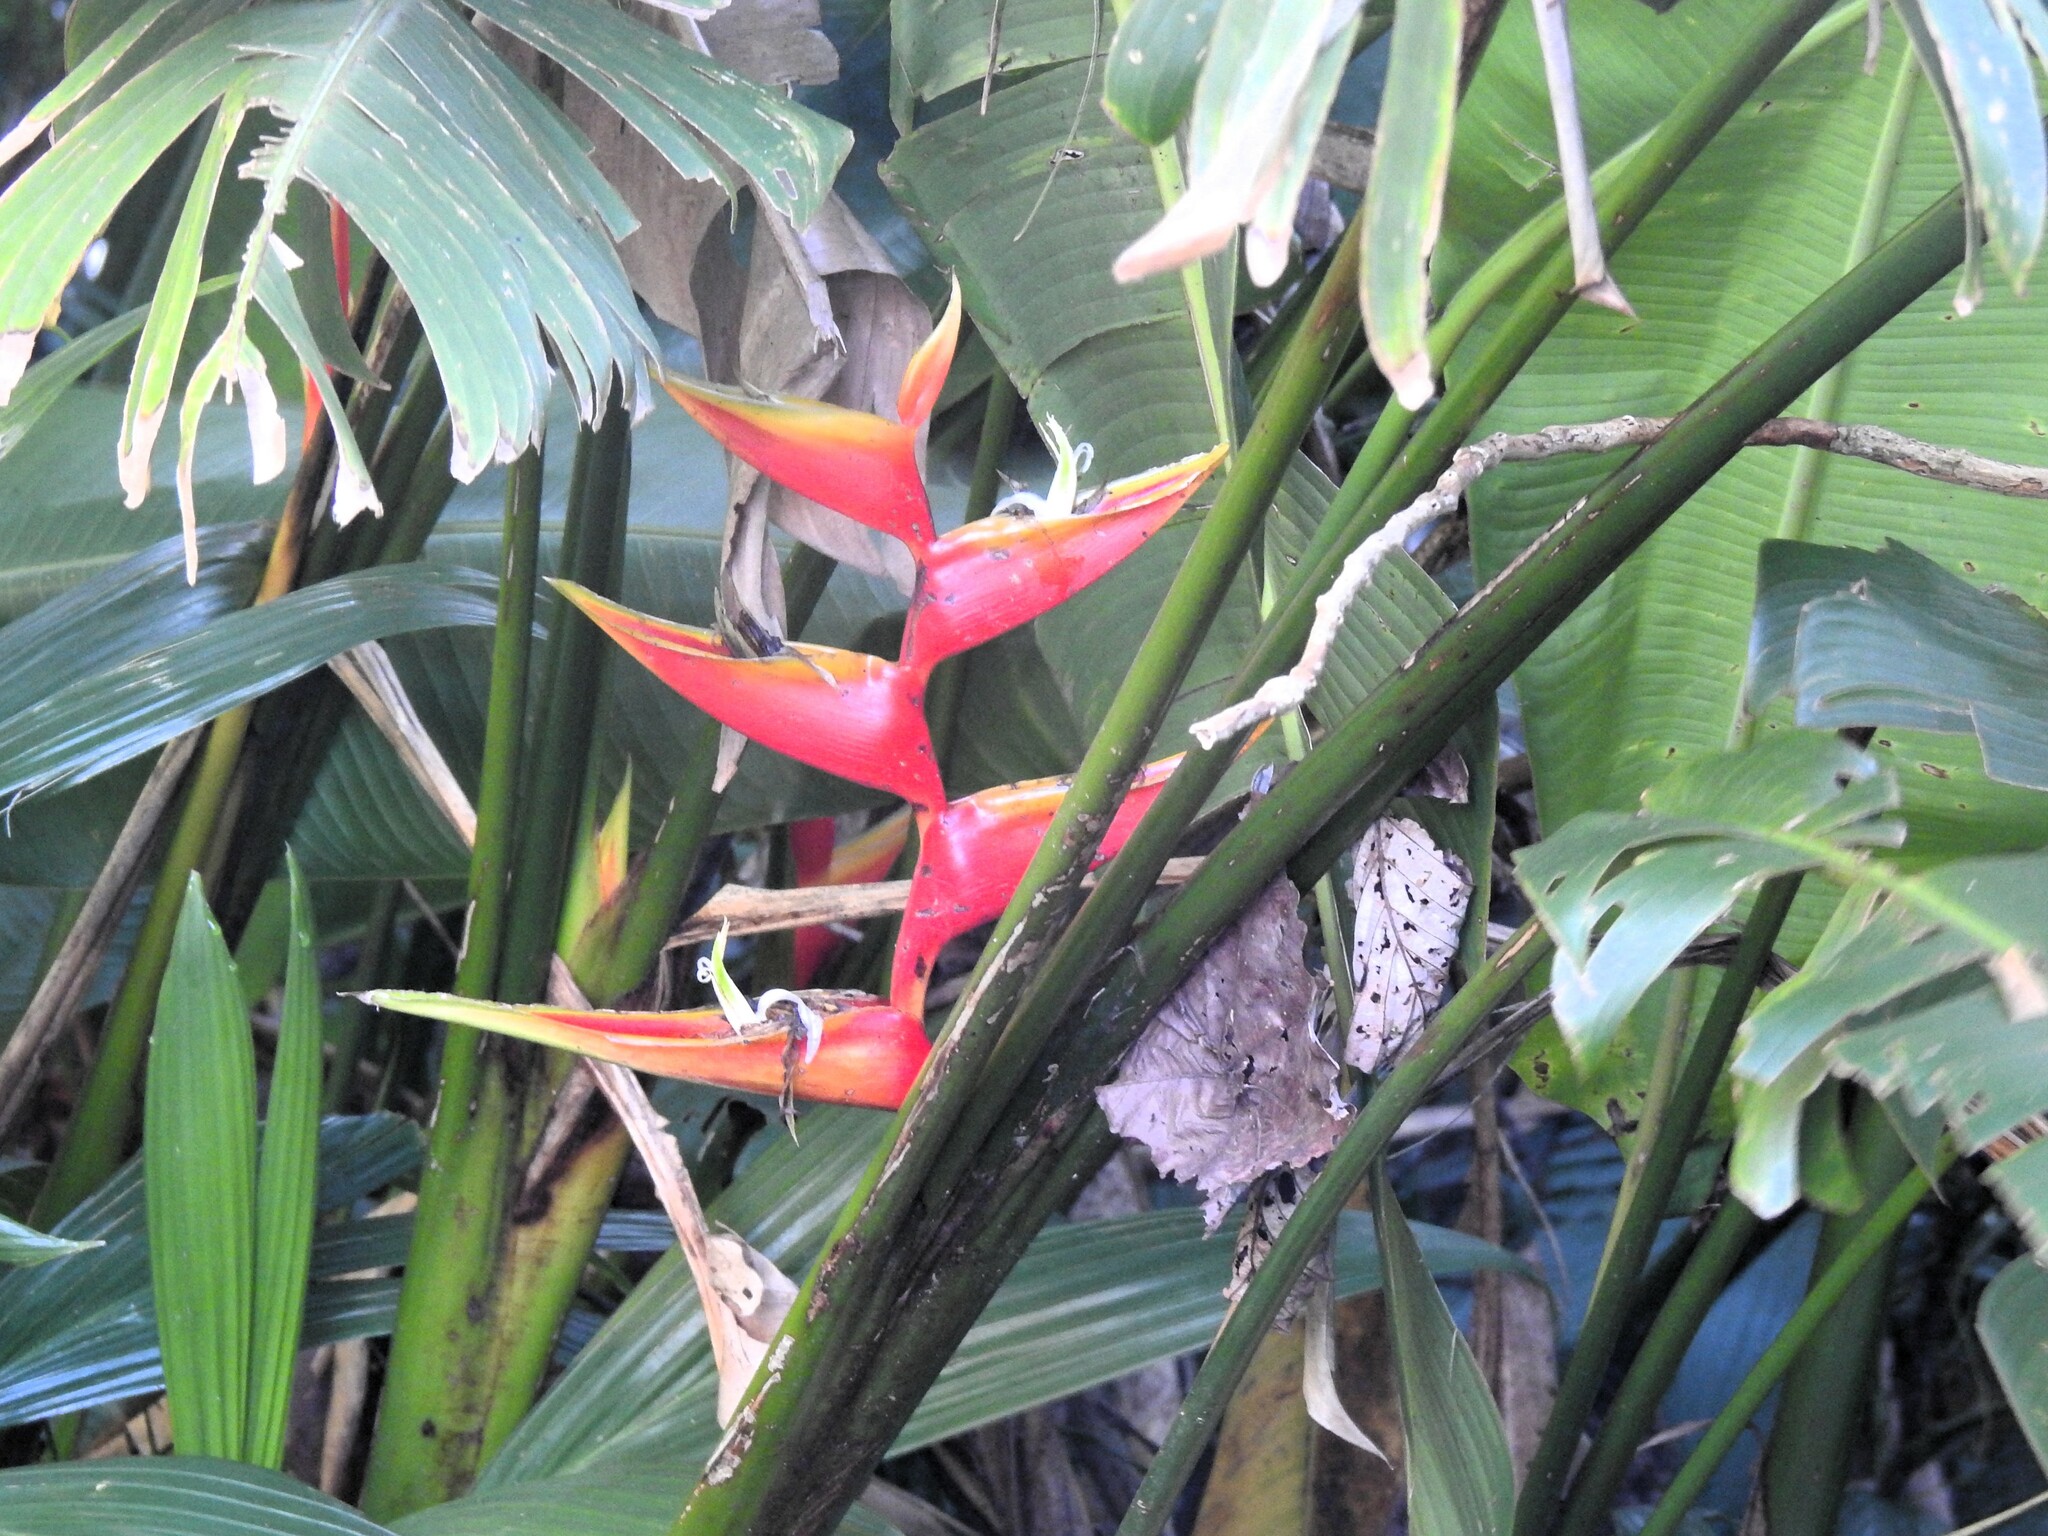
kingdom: Plantae
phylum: Tracheophyta
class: Liliopsida
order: Zingiberales
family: Heliconiaceae
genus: Heliconia
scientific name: Heliconia bihai
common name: Macaw flower
